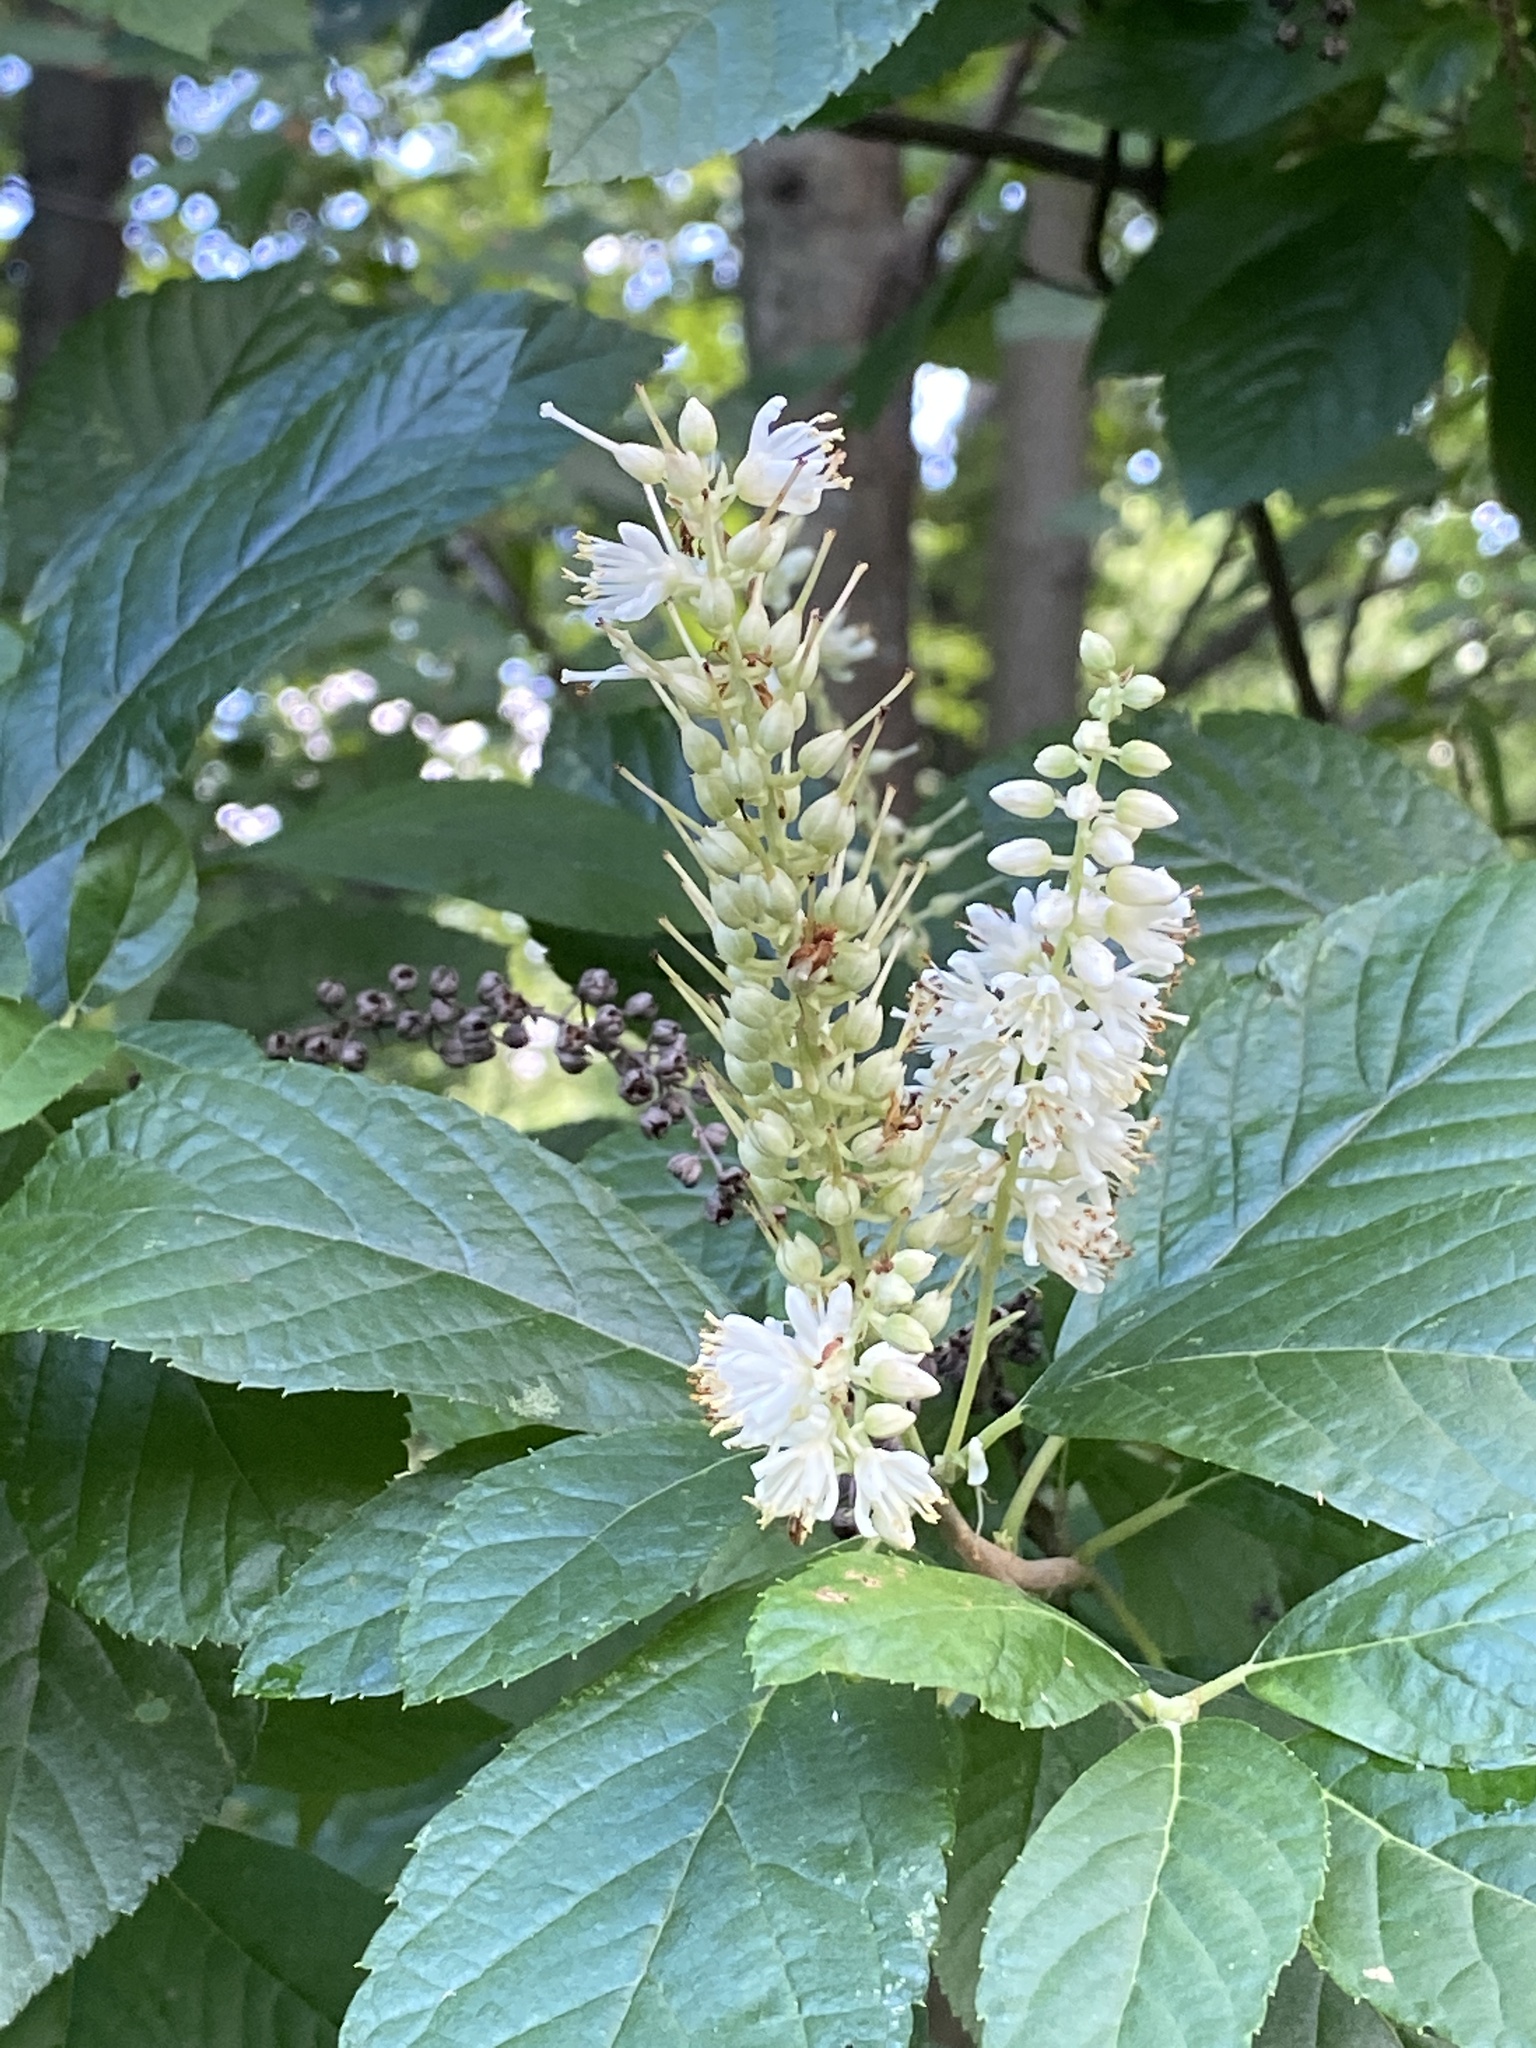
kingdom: Plantae
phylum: Tracheophyta
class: Magnoliopsida
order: Ericales
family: Clethraceae
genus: Clethra
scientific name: Clethra alnifolia
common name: Sweet pepperbush
